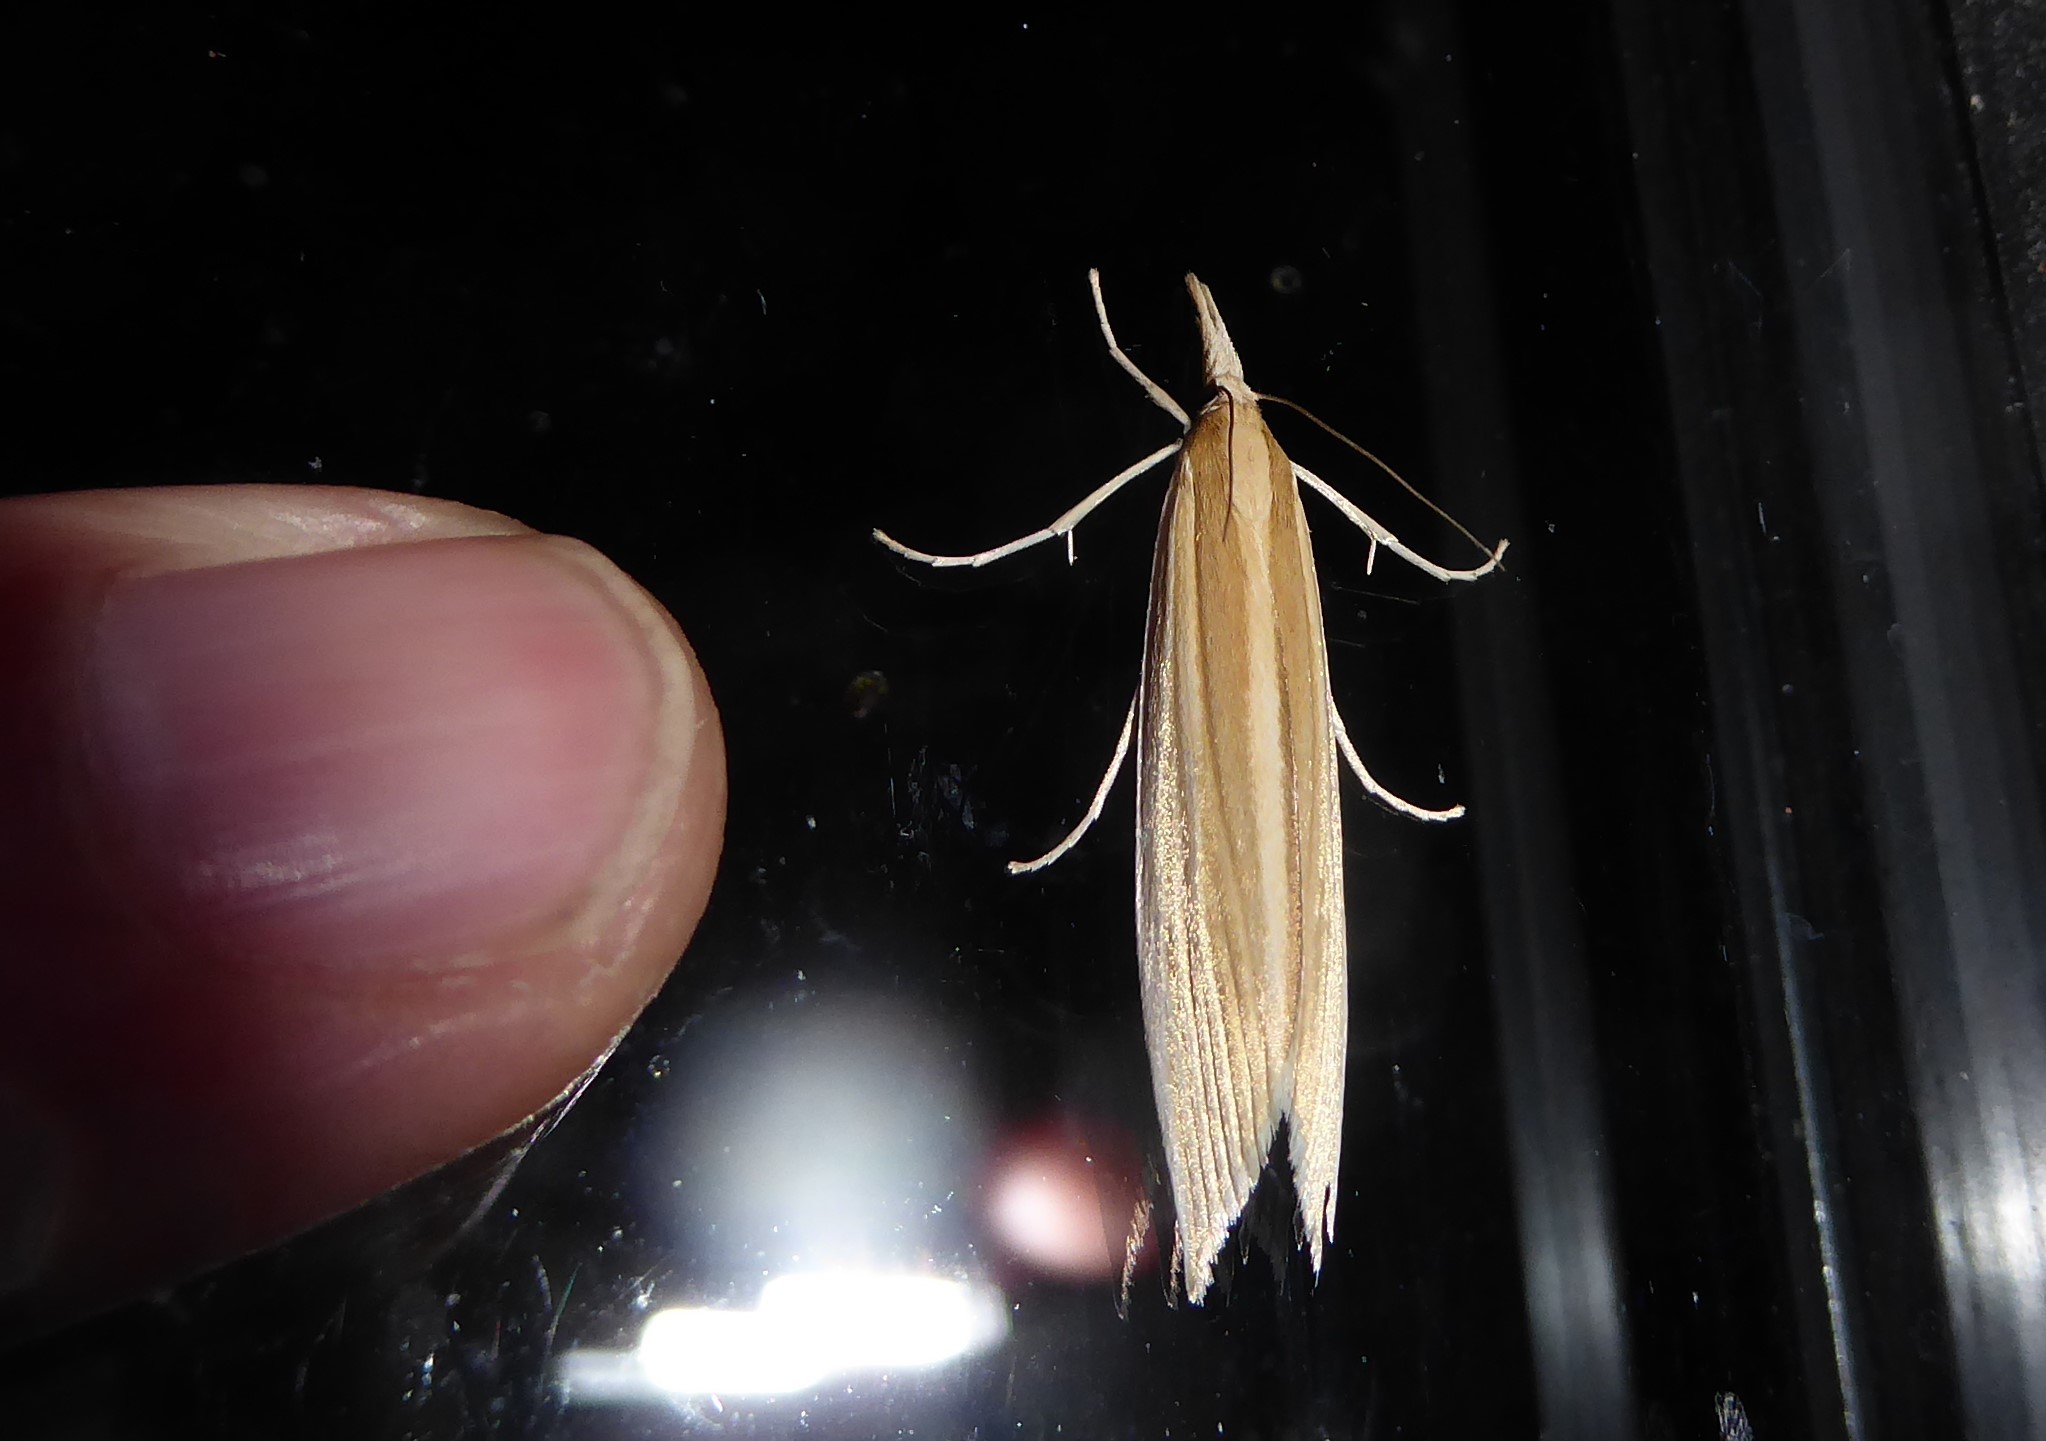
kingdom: Animalia
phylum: Arthropoda
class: Insecta
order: Lepidoptera
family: Crambidae
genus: Orocrambus
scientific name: Orocrambus angustipennis
